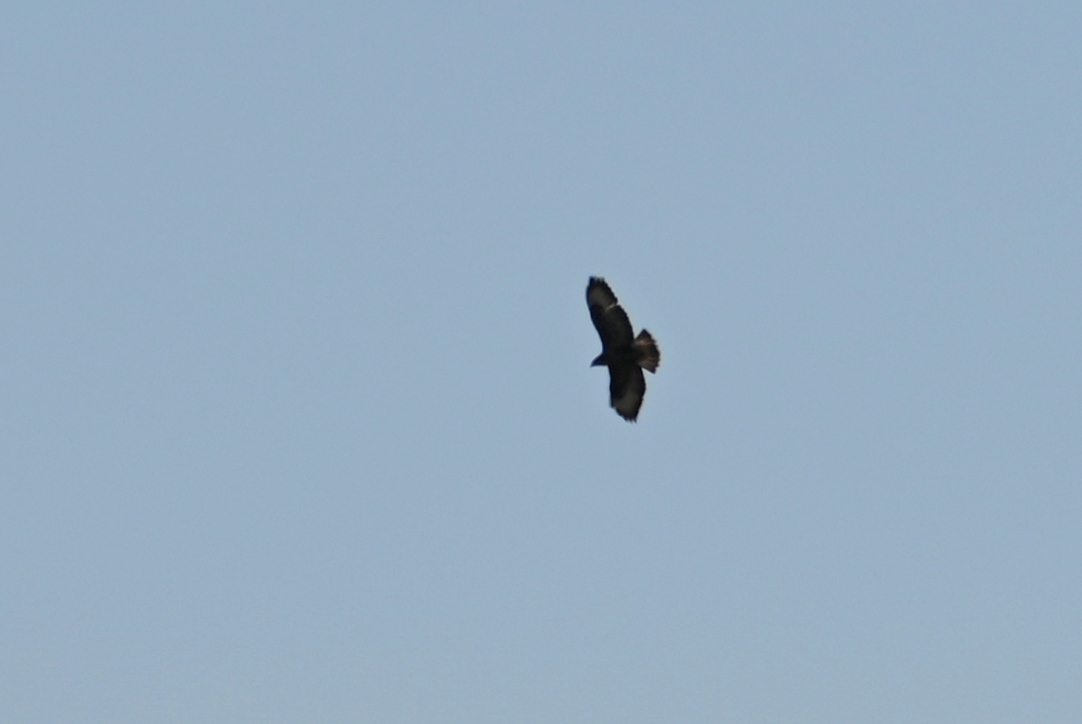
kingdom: Animalia
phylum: Chordata
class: Aves
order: Accipitriformes
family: Accipitridae
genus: Buteo
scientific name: Buteo buteo
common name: Common buzzard
